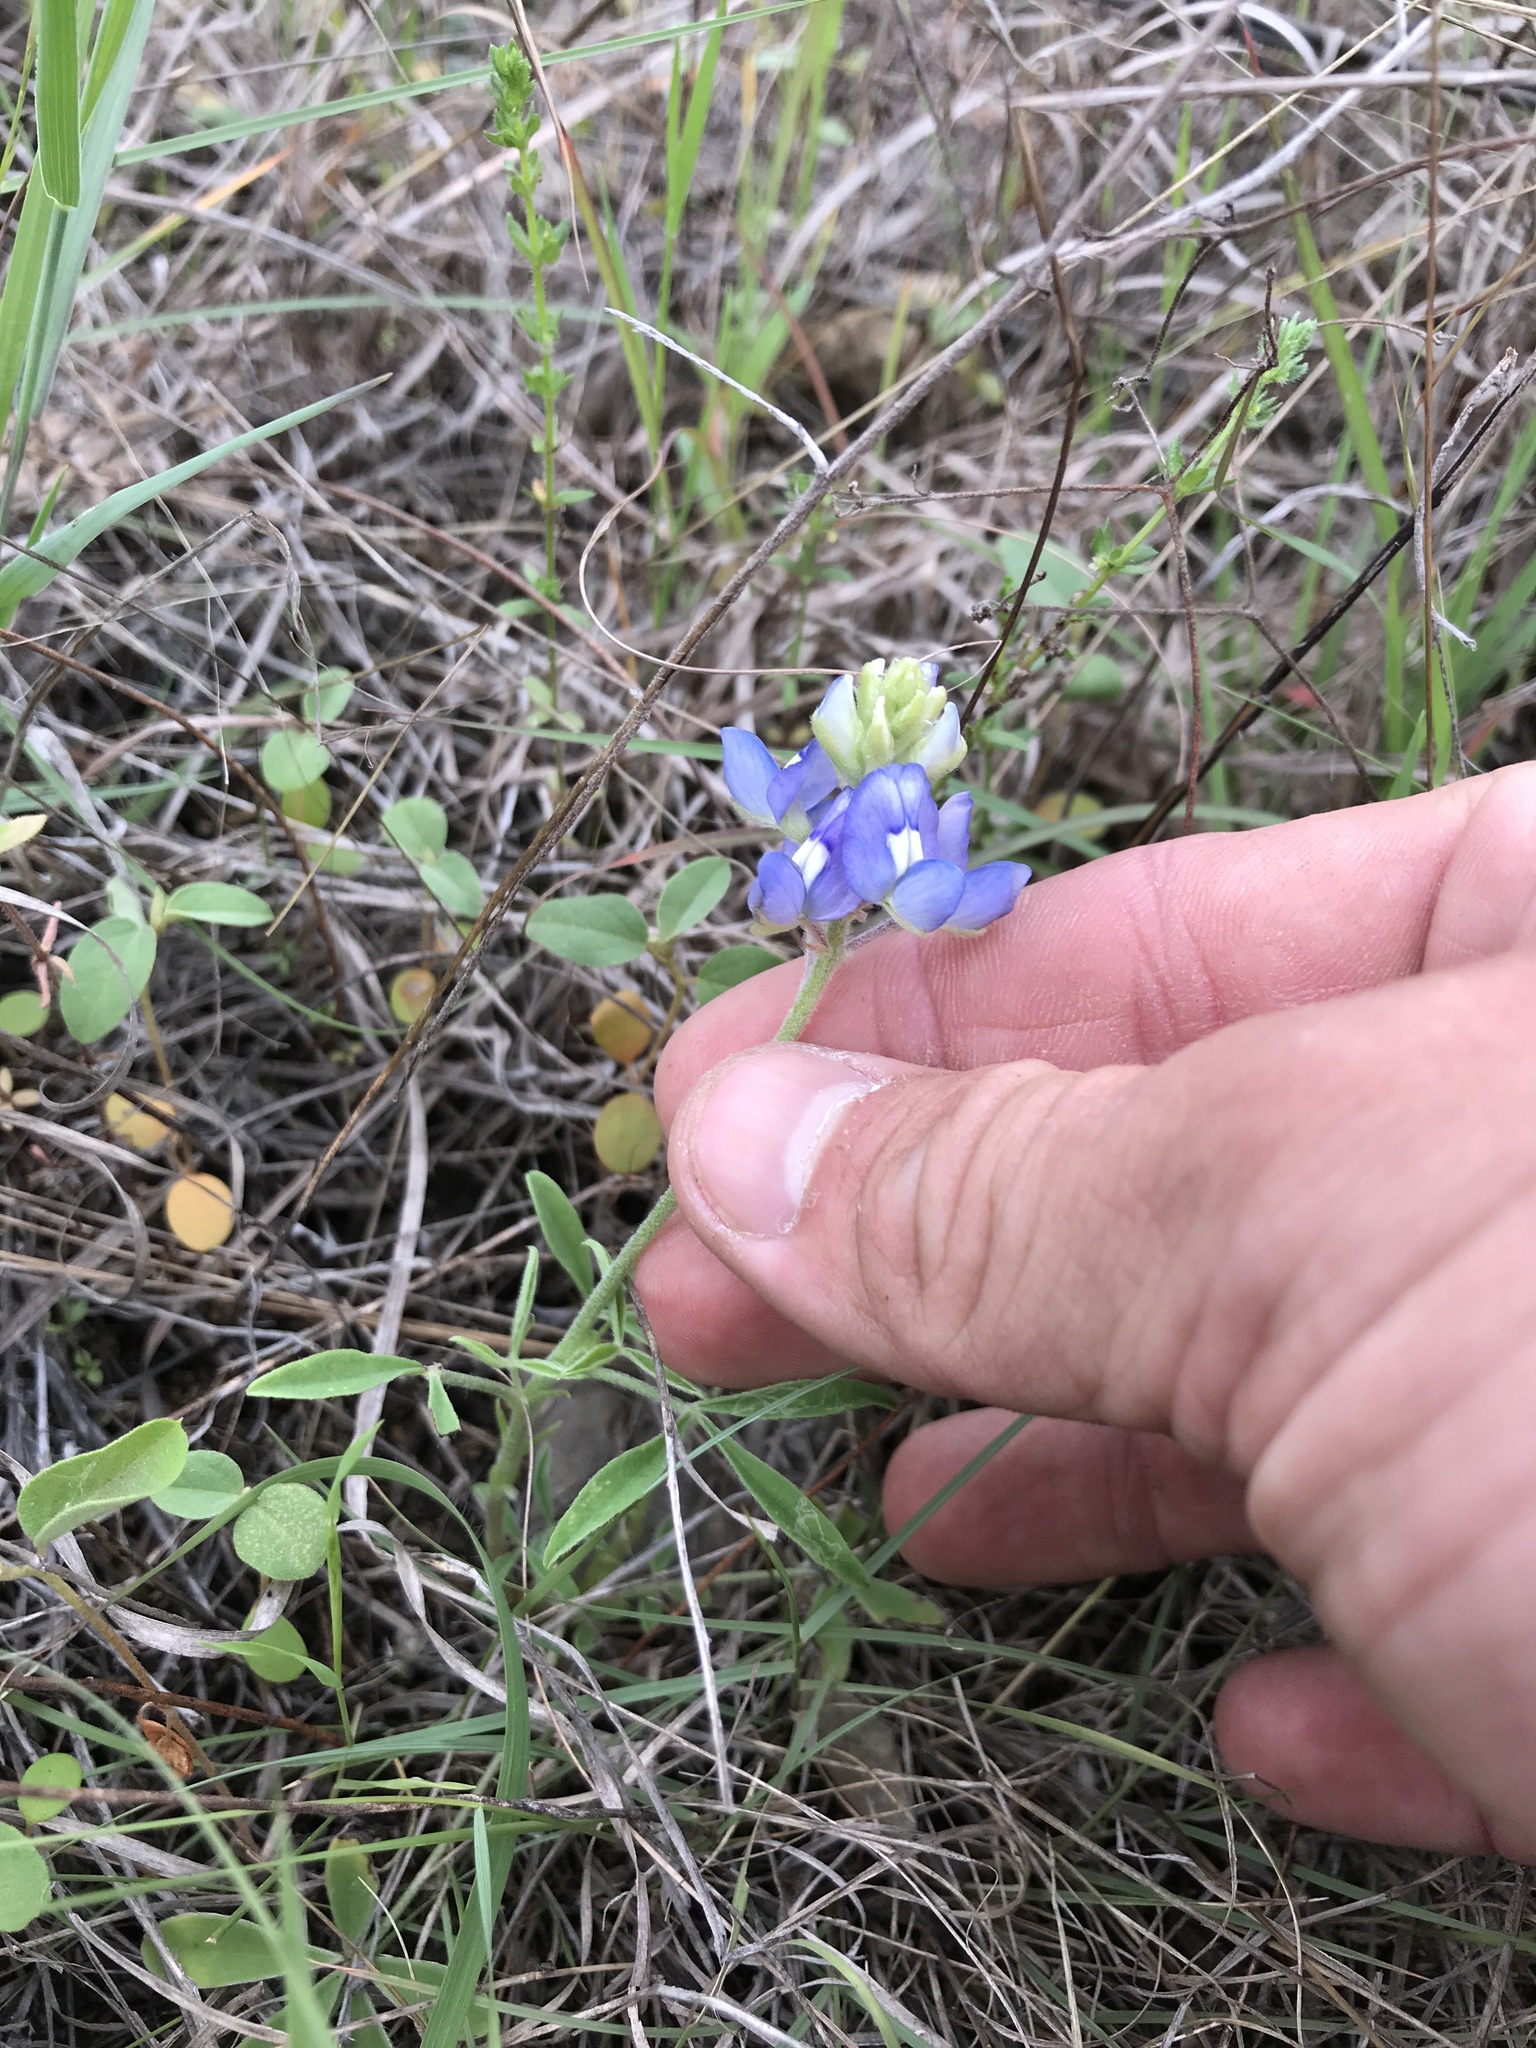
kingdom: Plantae
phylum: Tracheophyta
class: Magnoliopsida
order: Fabales
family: Fabaceae
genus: Lupinus
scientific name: Lupinus texensis
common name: Texas bluebonnet
